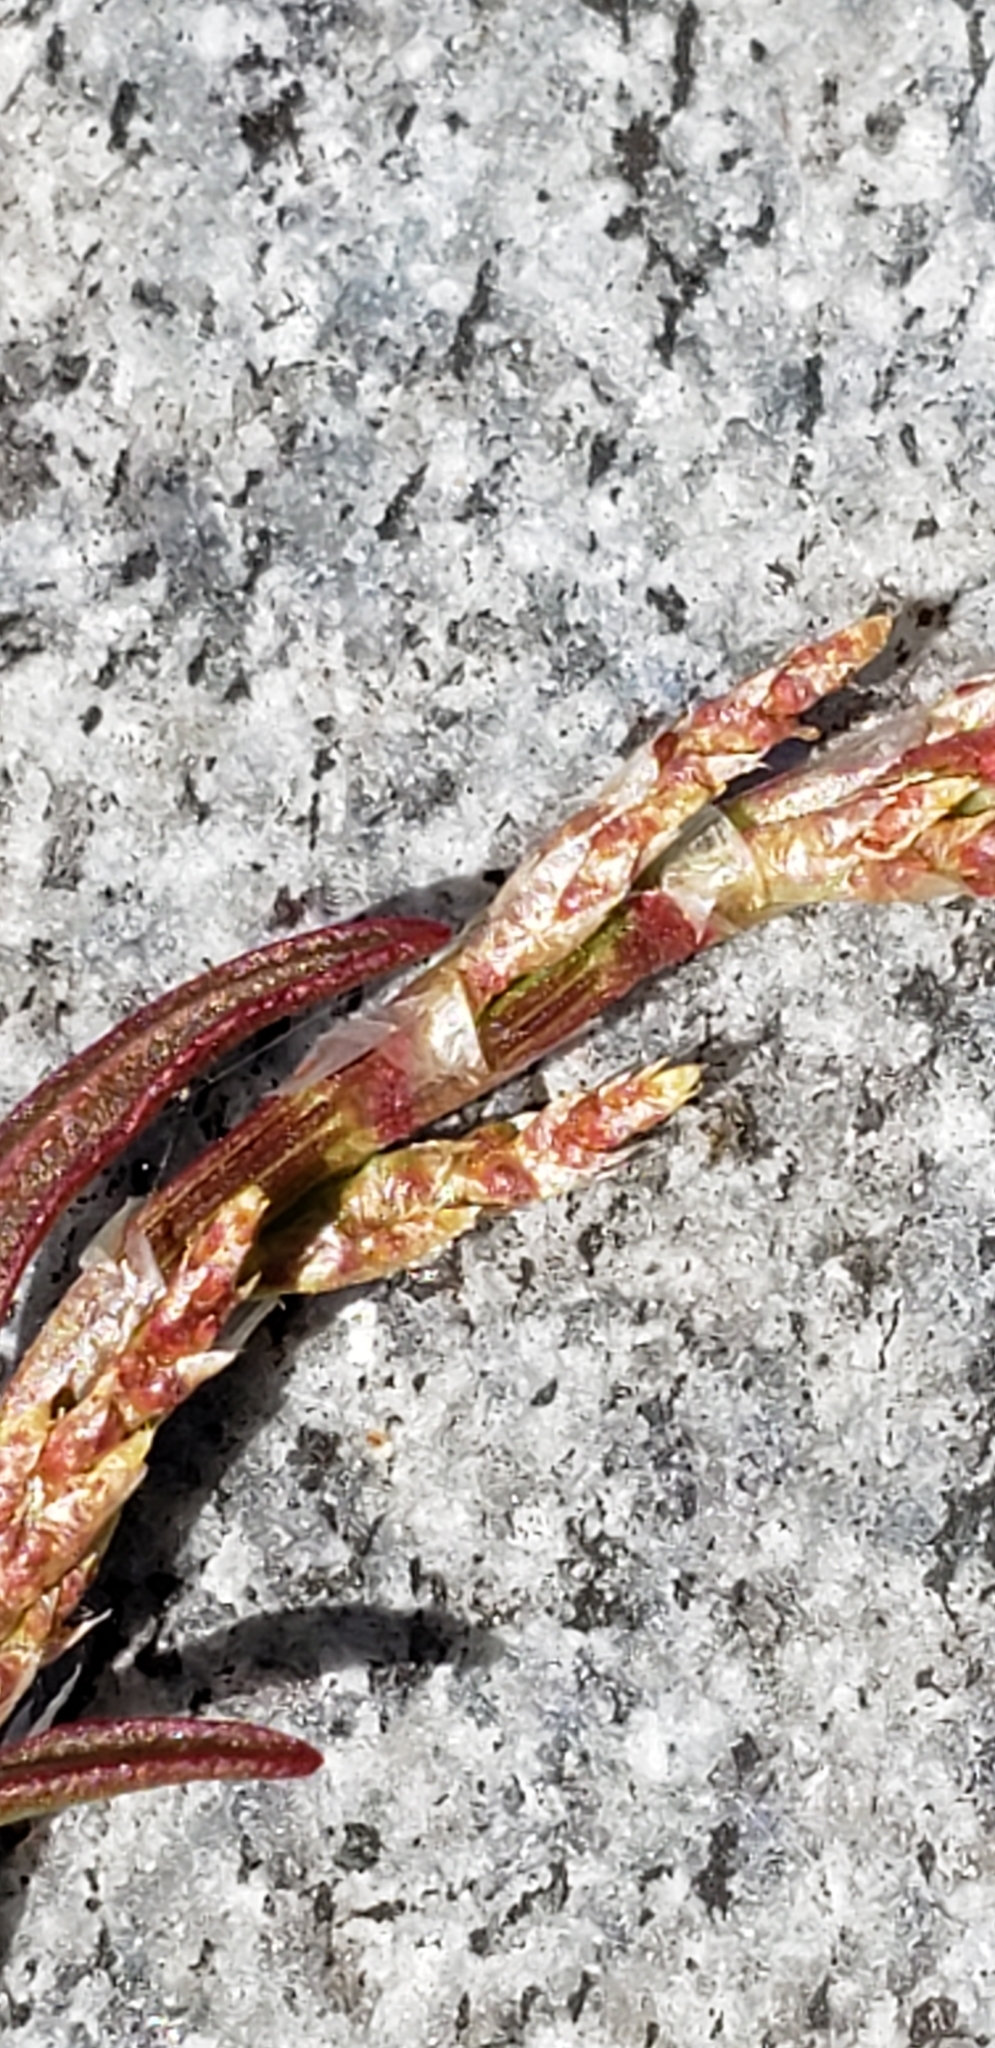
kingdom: Plantae
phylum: Tracheophyta
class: Magnoliopsida
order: Caryophyllales
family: Polygonaceae
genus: Rumex
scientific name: Rumex acetosella
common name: Common sheep sorrel
